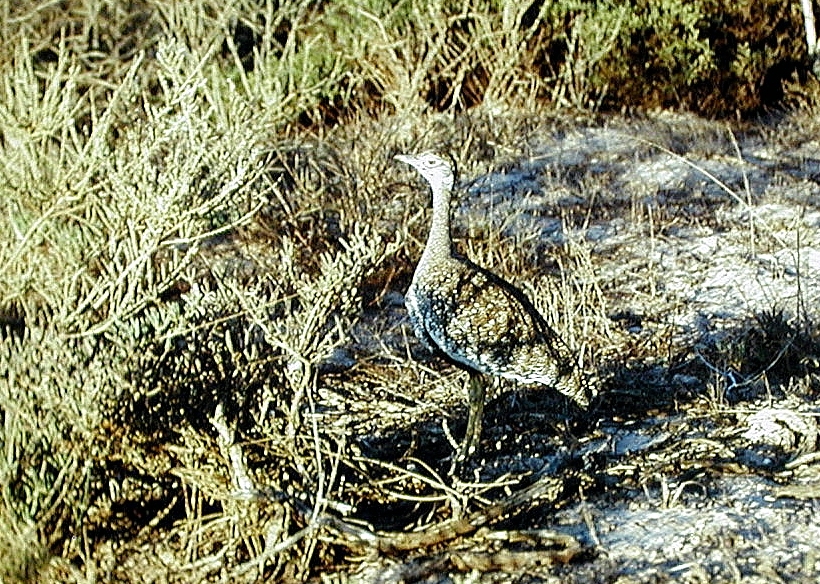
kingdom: Animalia
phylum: Chordata
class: Aves
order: Otidiformes
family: Otididae
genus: Afrotis
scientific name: Afrotis afra
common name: Southern black korhaan
